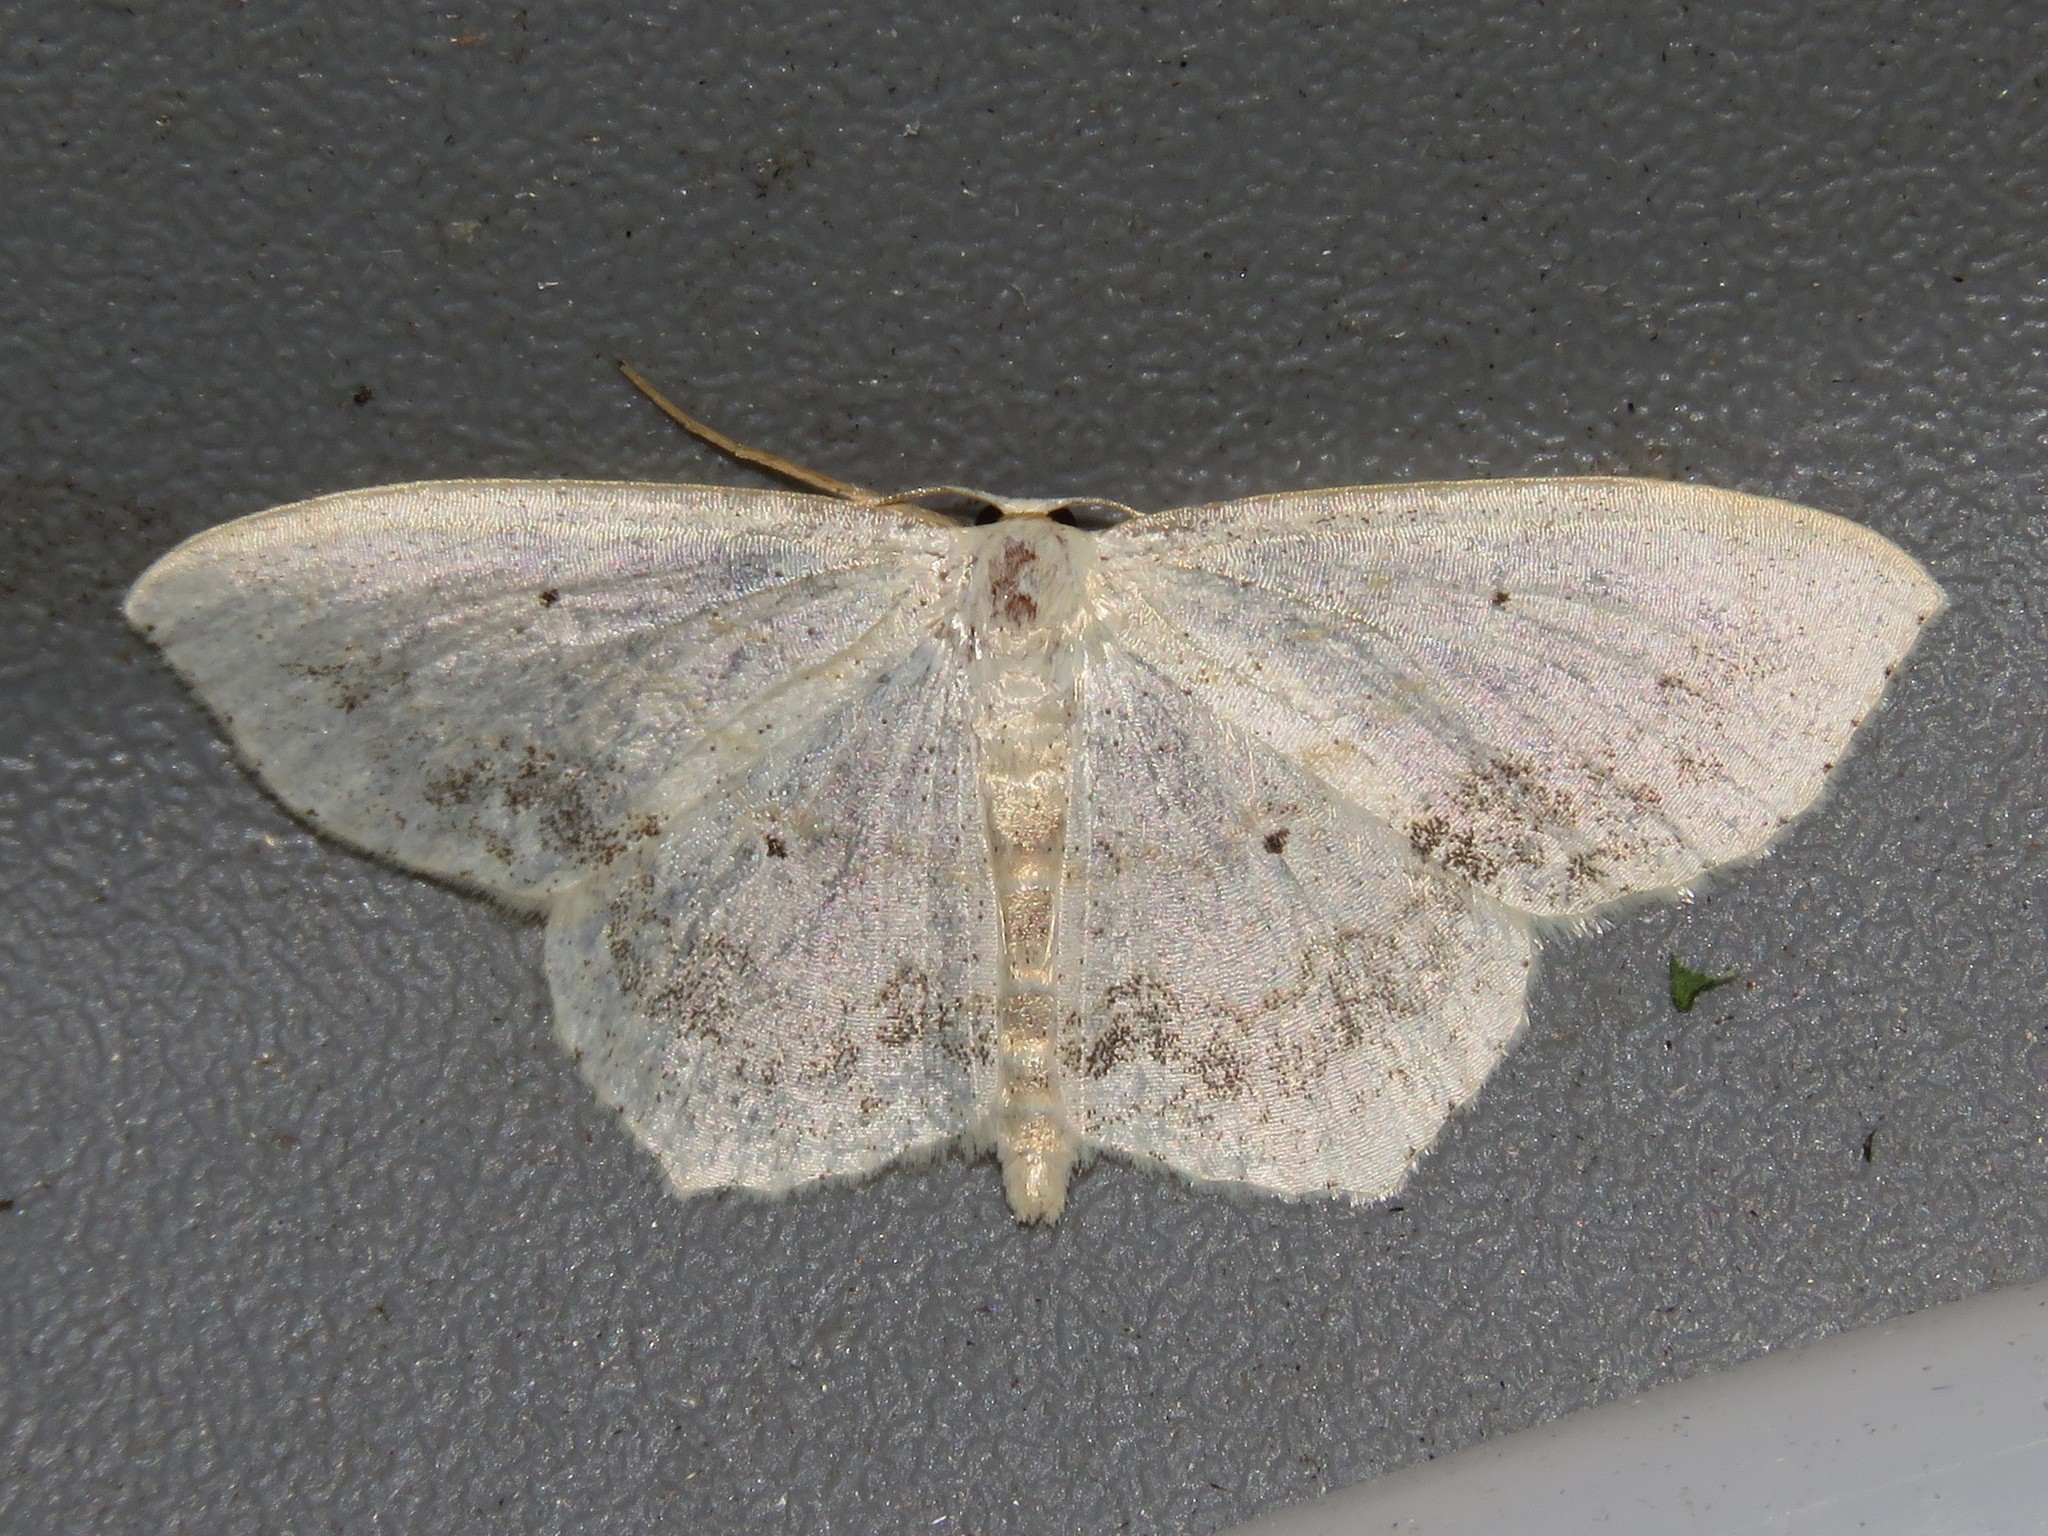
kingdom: Animalia
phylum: Arthropoda
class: Insecta
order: Lepidoptera
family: Geometridae
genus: Scopula
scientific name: Scopula limboundata
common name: Large lace border
